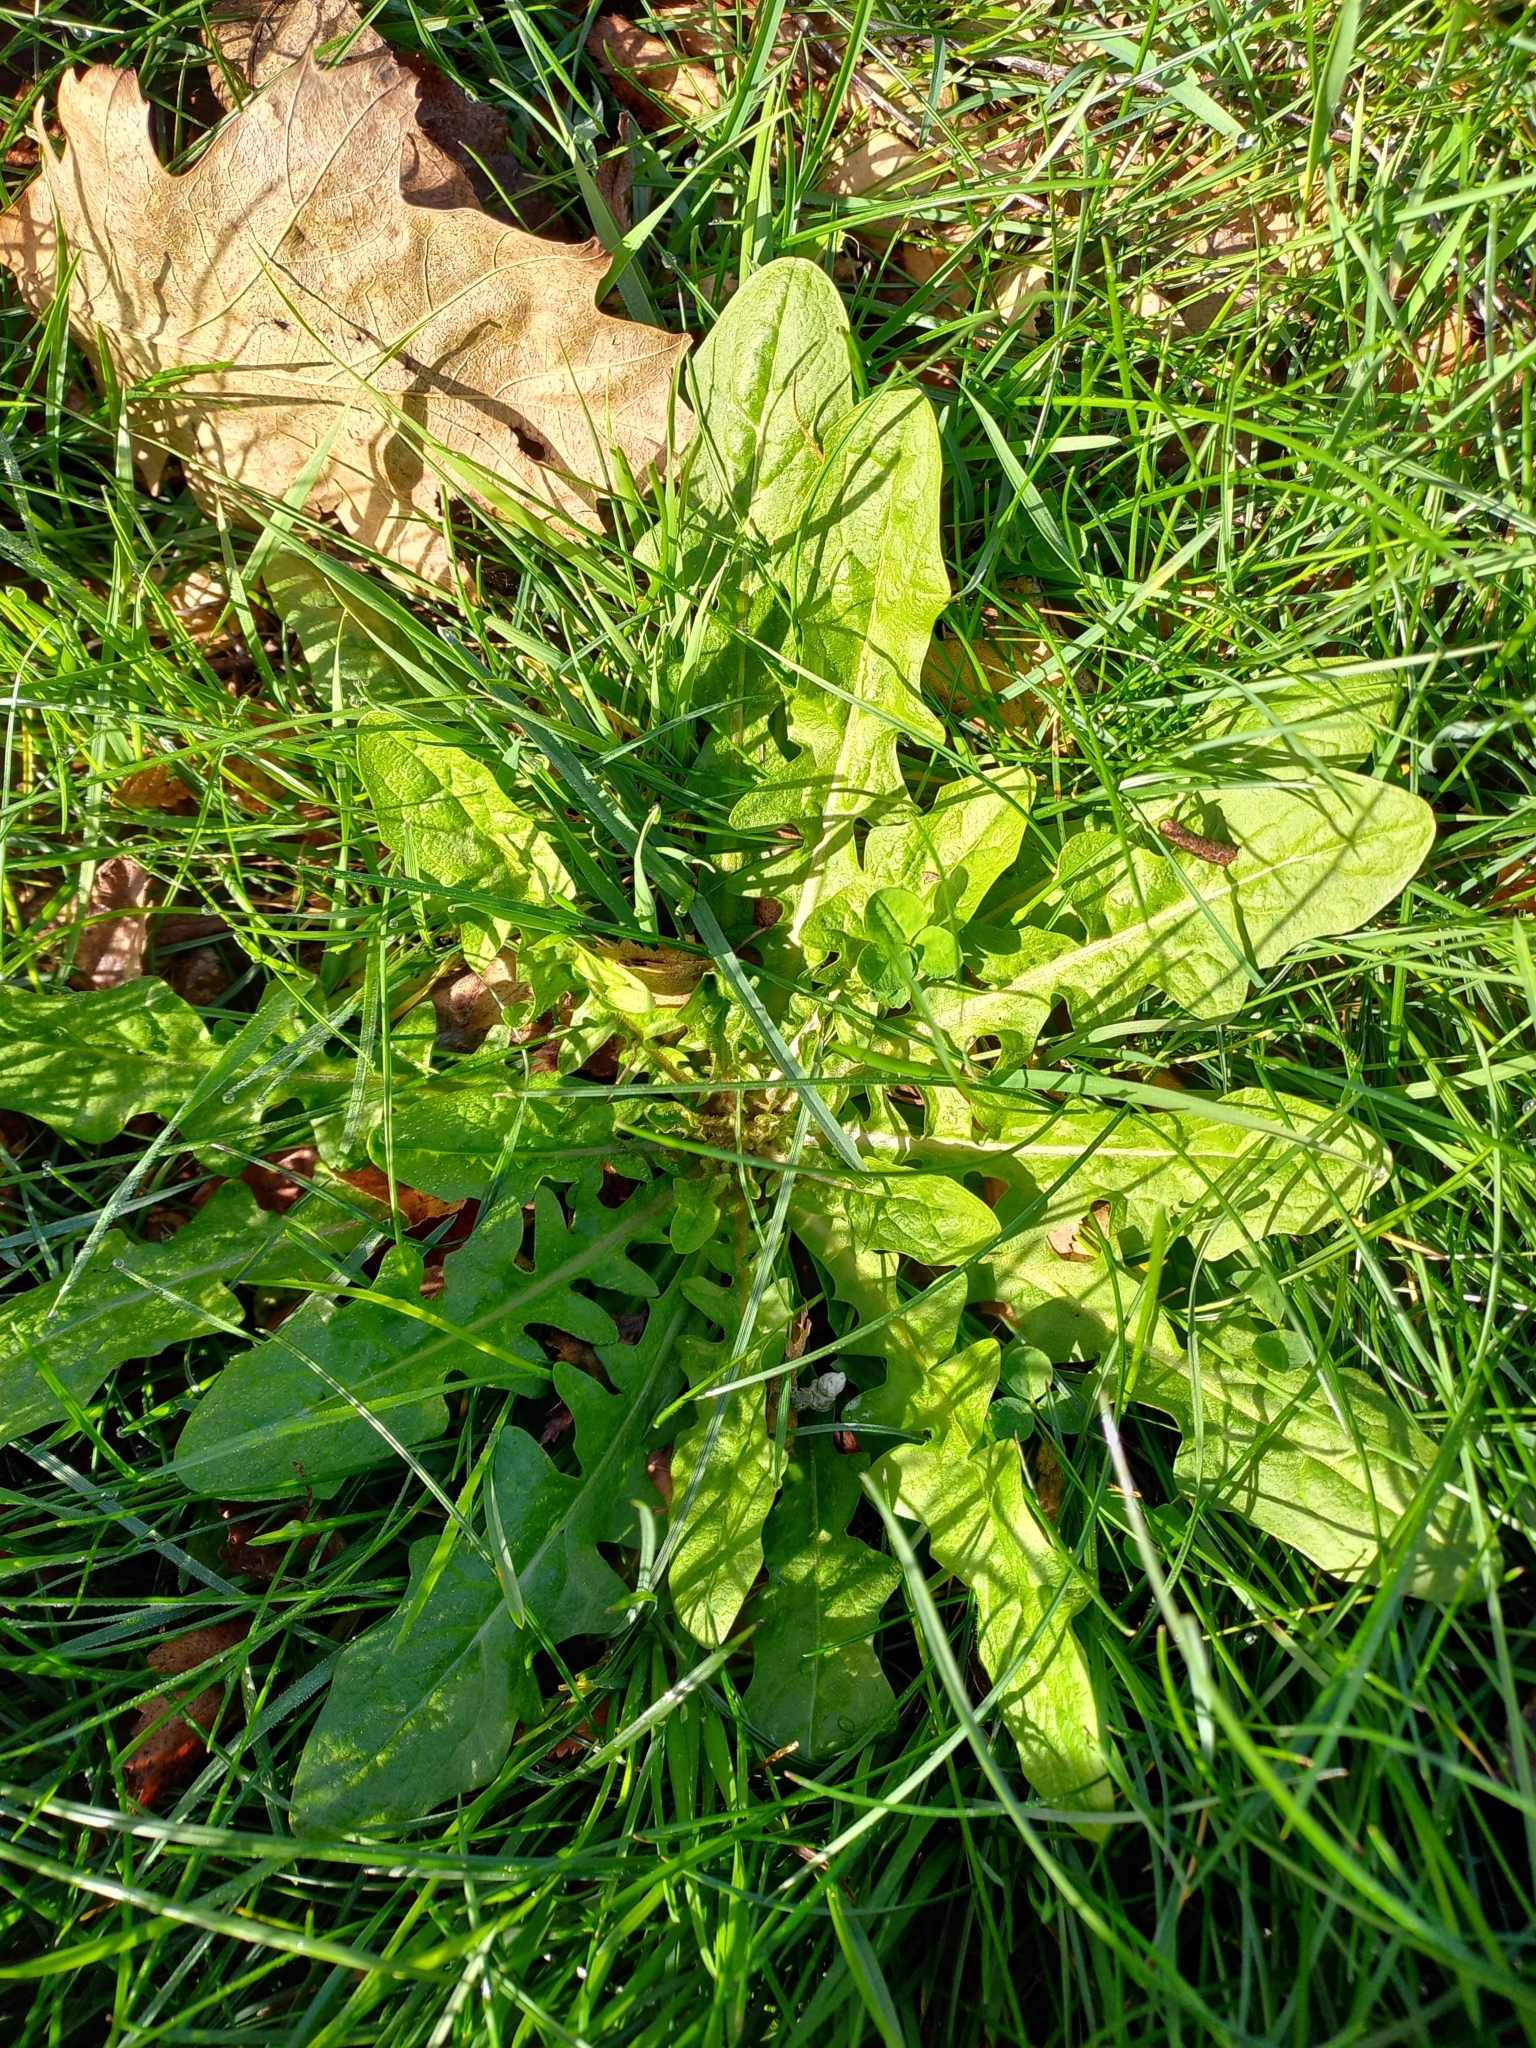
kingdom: Plantae
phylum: Tracheophyta
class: Magnoliopsida
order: Asterales
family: Asteraceae
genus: Taraxacum
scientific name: Taraxacum officinale
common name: Common dandelion
